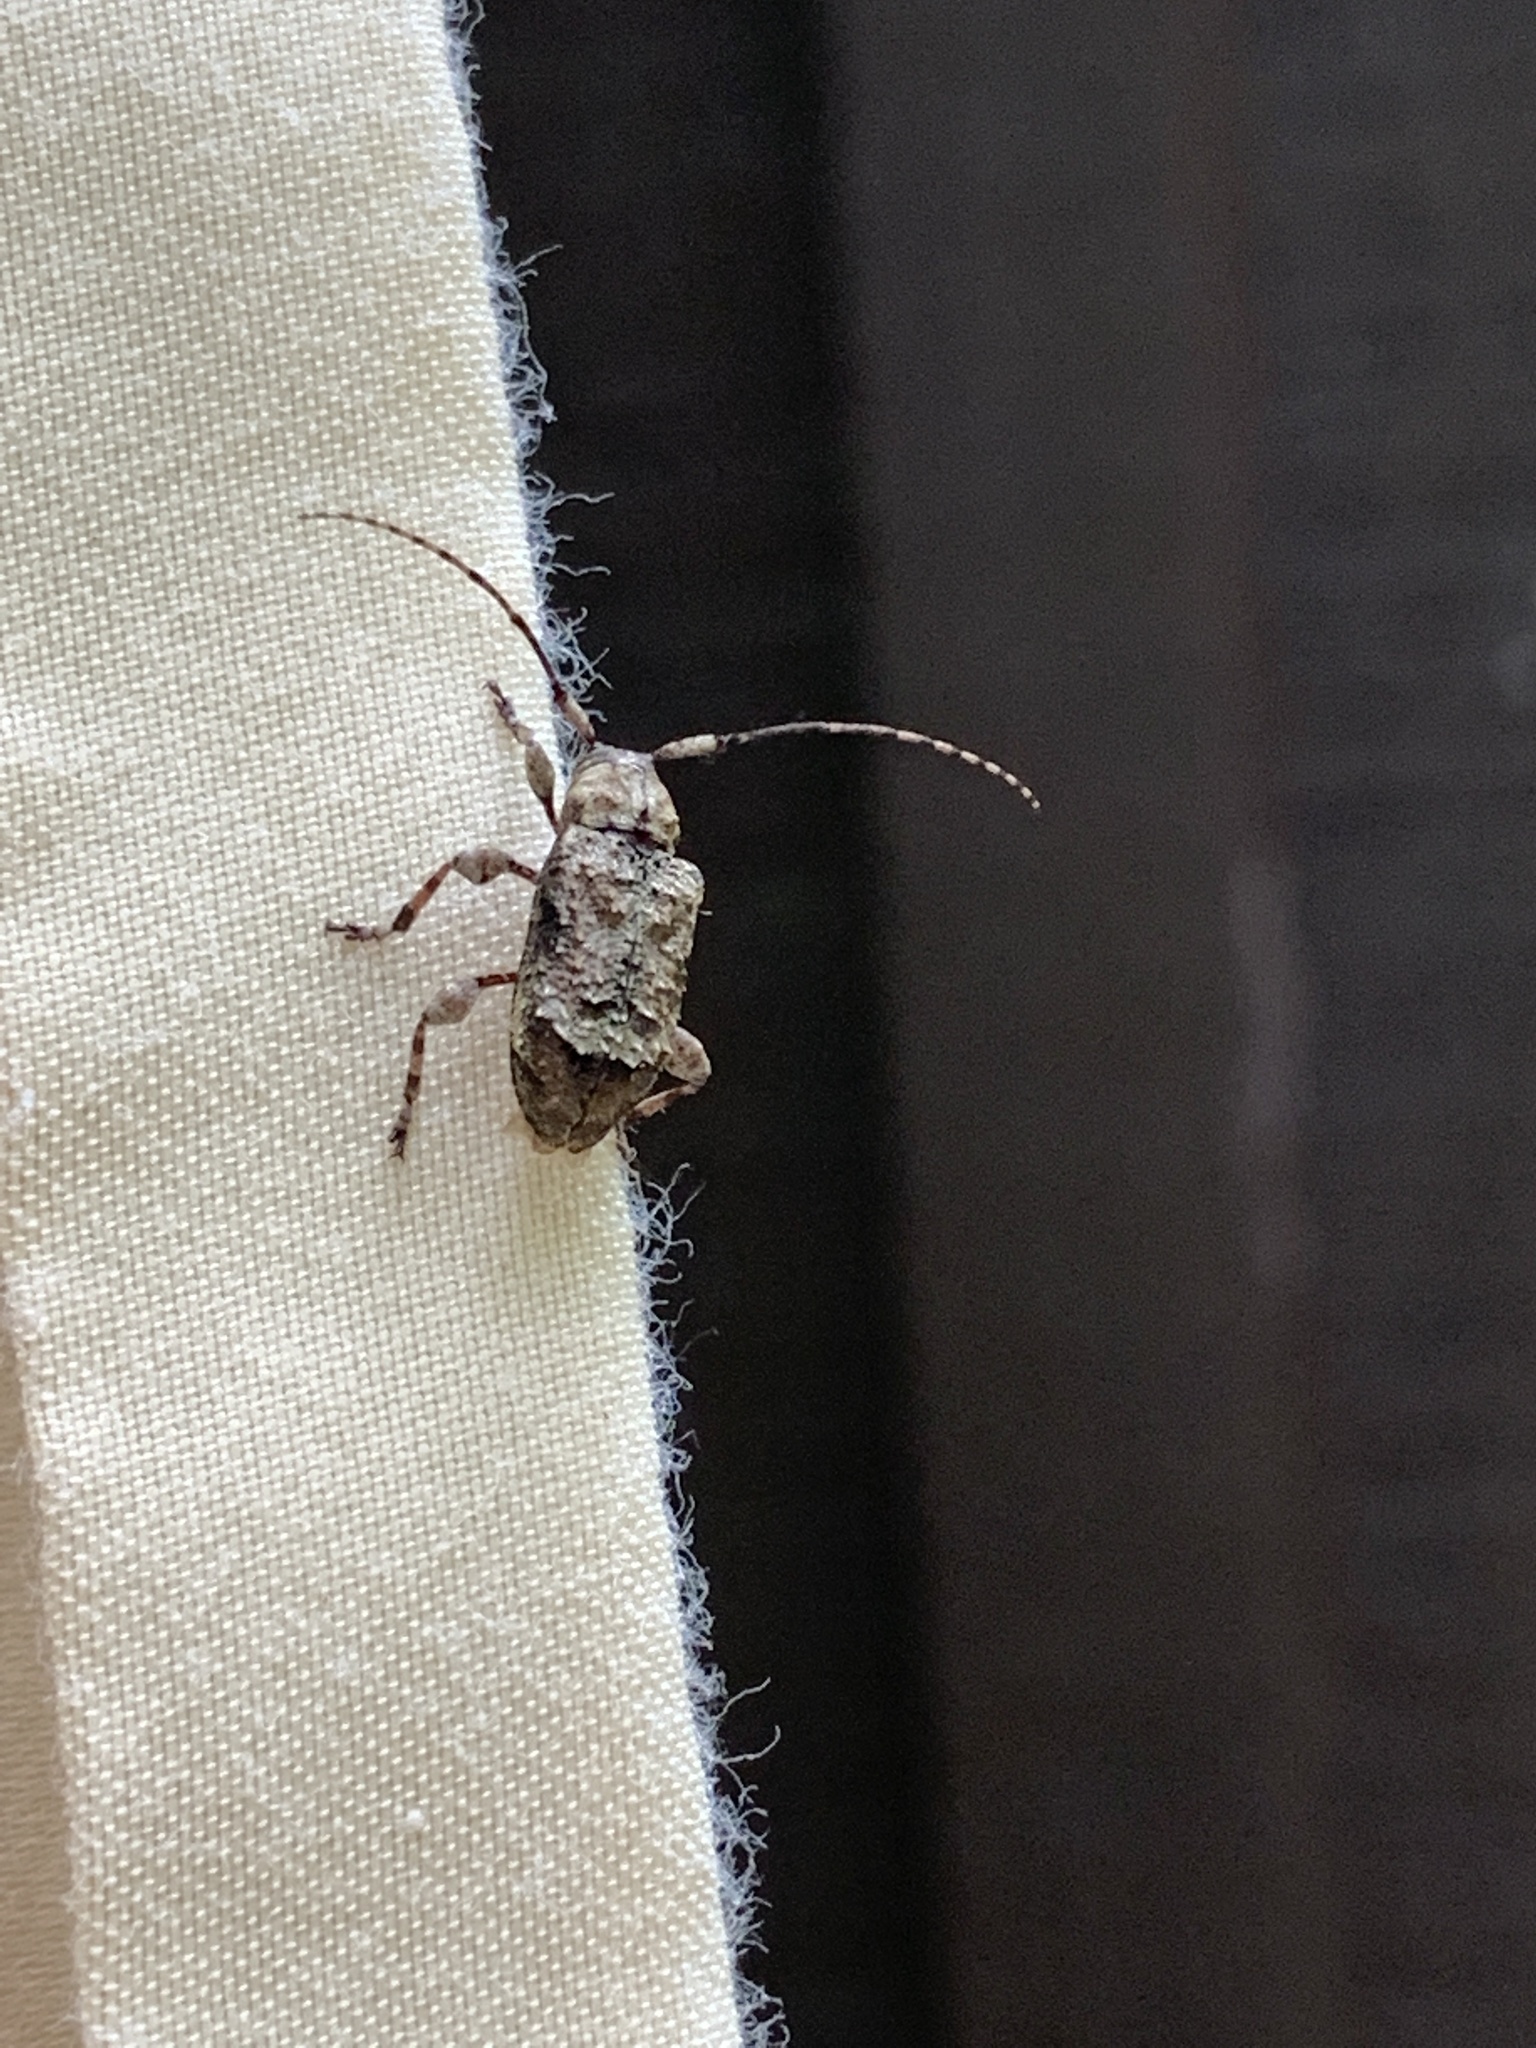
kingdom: Animalia
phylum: Arthropoda
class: Insecta
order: Coleoptera
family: Cerambycidae
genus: Leptostylus
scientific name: Leptostylus asperatus
